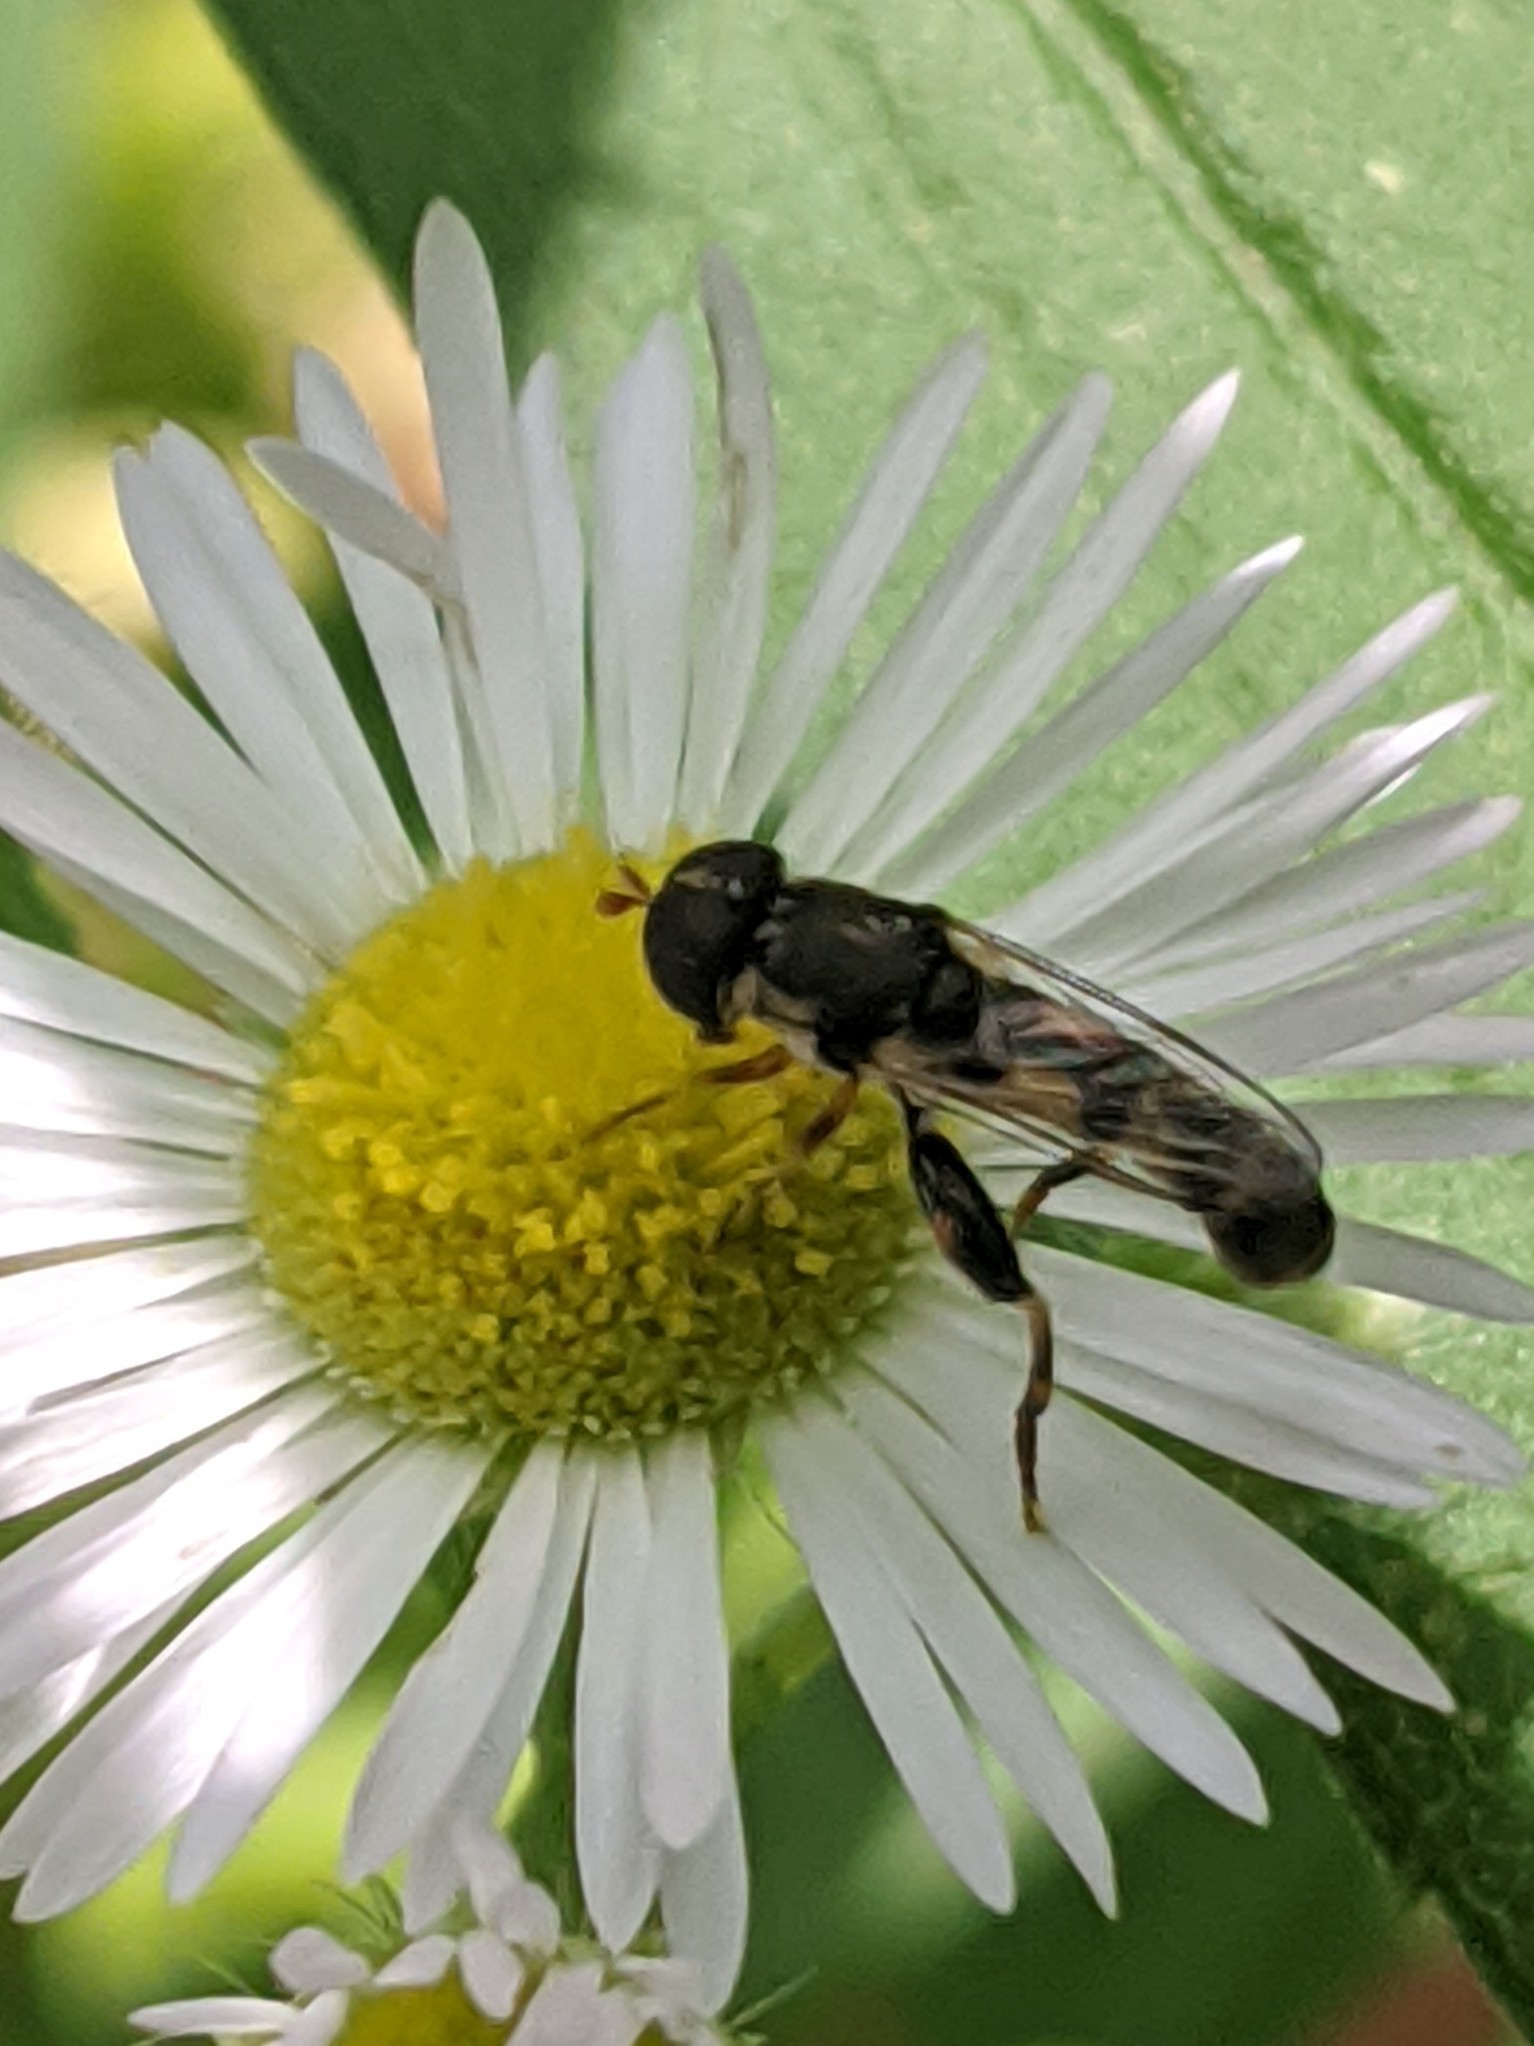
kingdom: Animalia
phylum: Arthropoda
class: Insecta
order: Diptera
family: Syrphidae
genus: Syritta
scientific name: Syritta pipiens
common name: Hover fly
